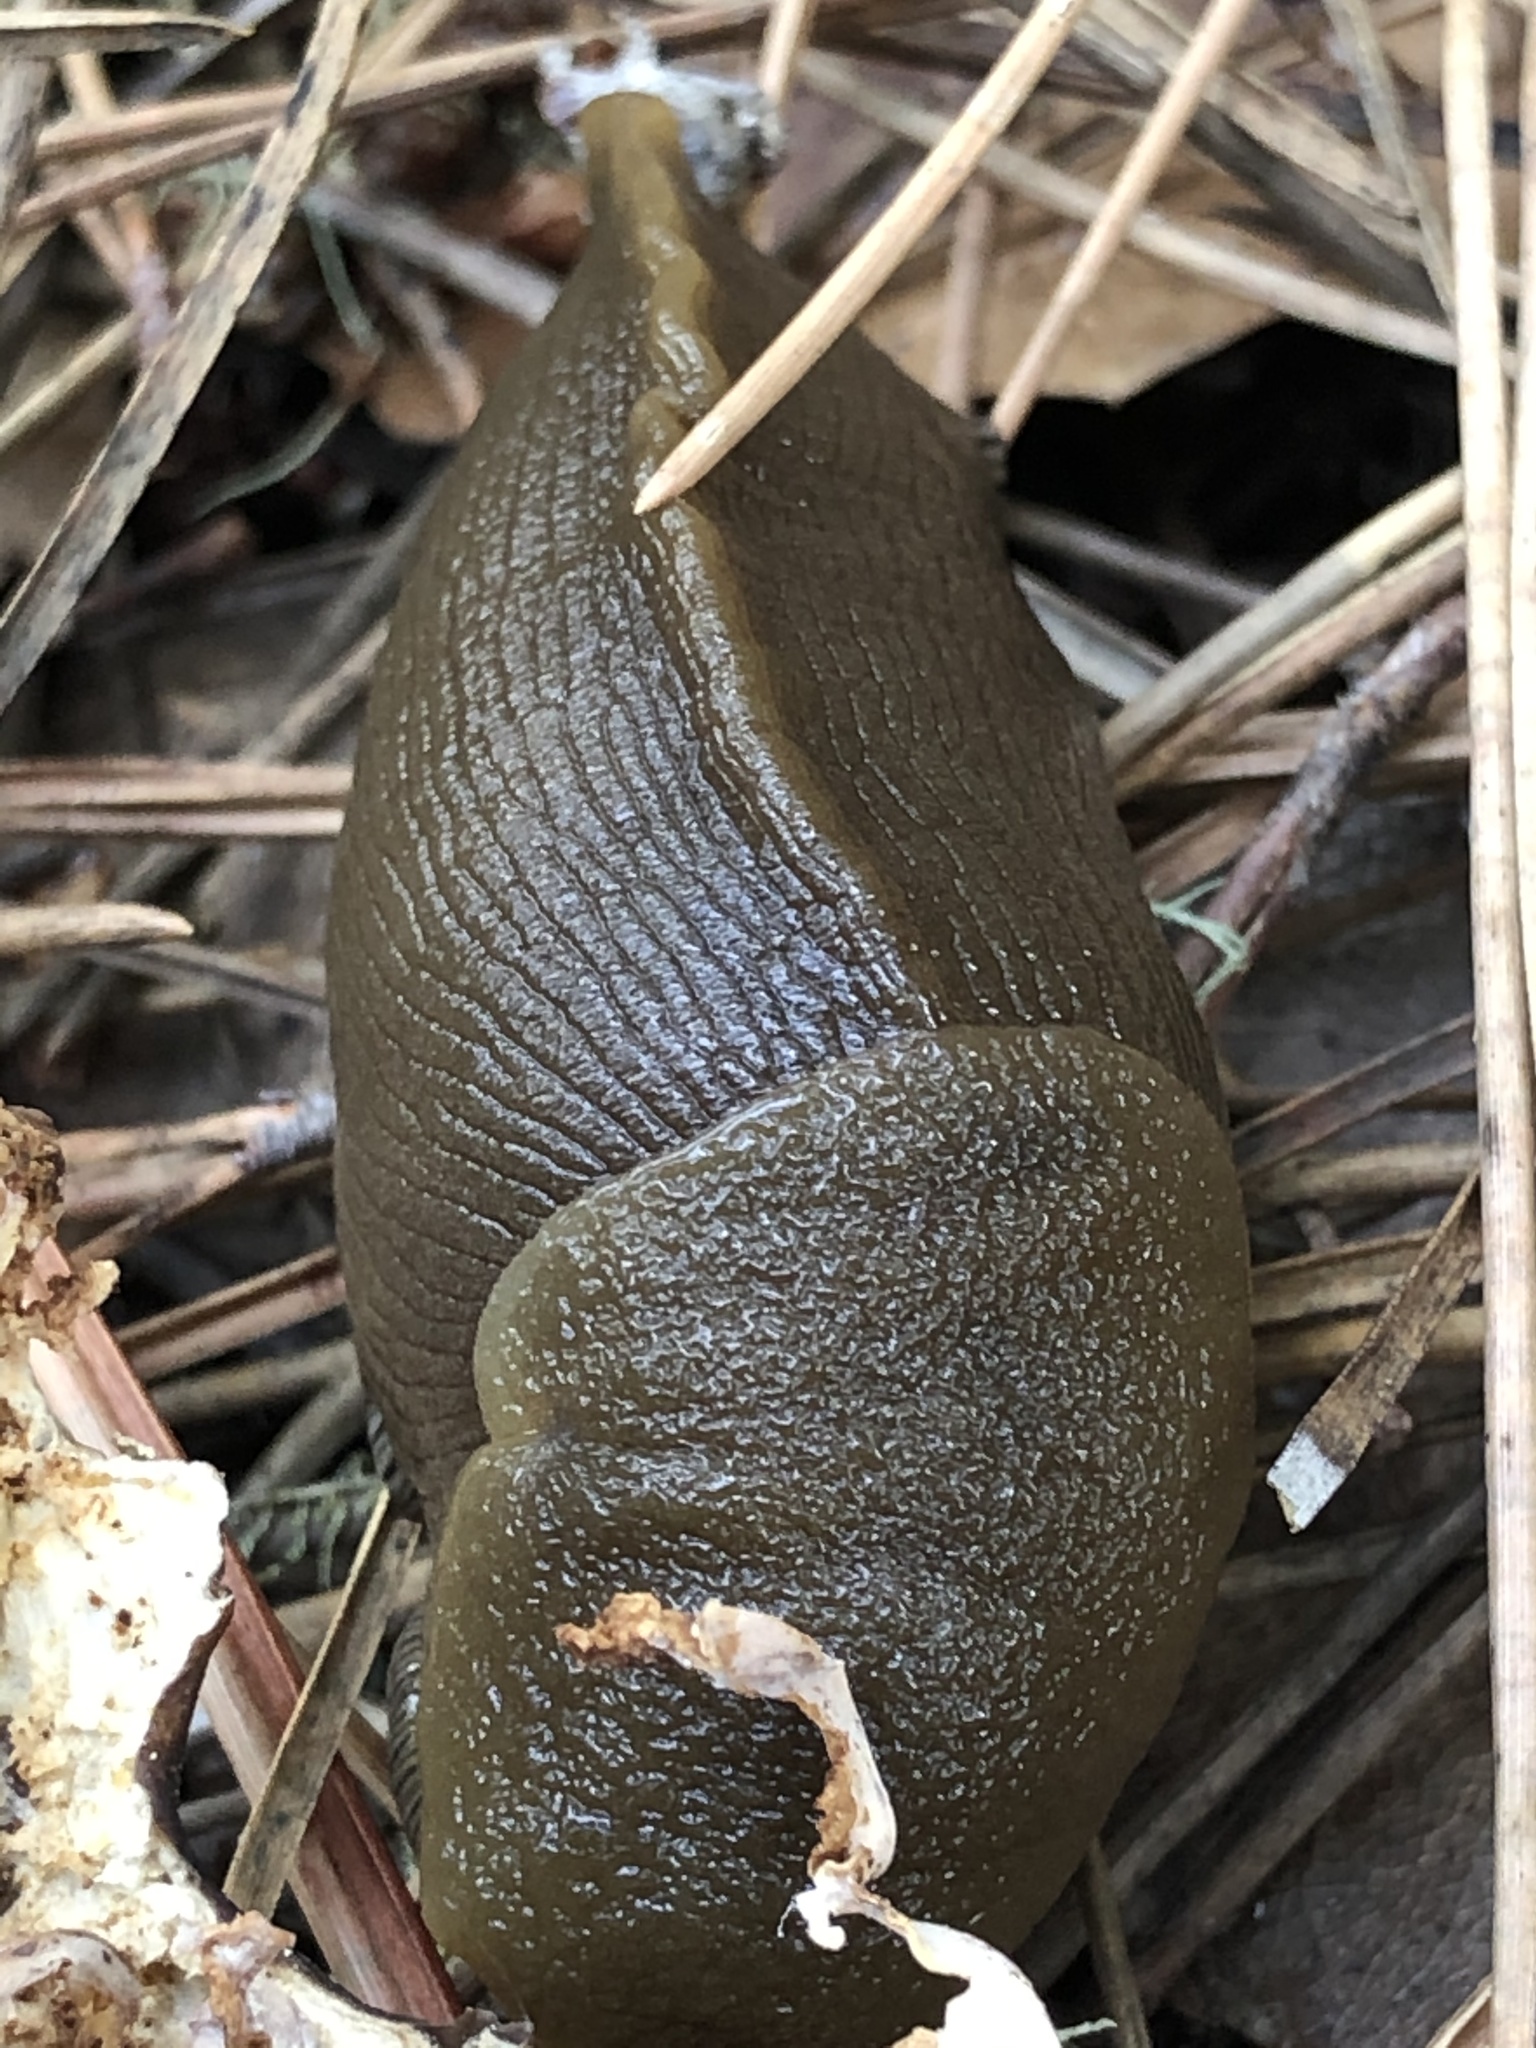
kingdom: Animalia
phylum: Mollusca
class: Gastropoda
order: Stylommatophora
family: Ariolimacidae
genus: Ariolimax
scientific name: Ariolimax buttoni
